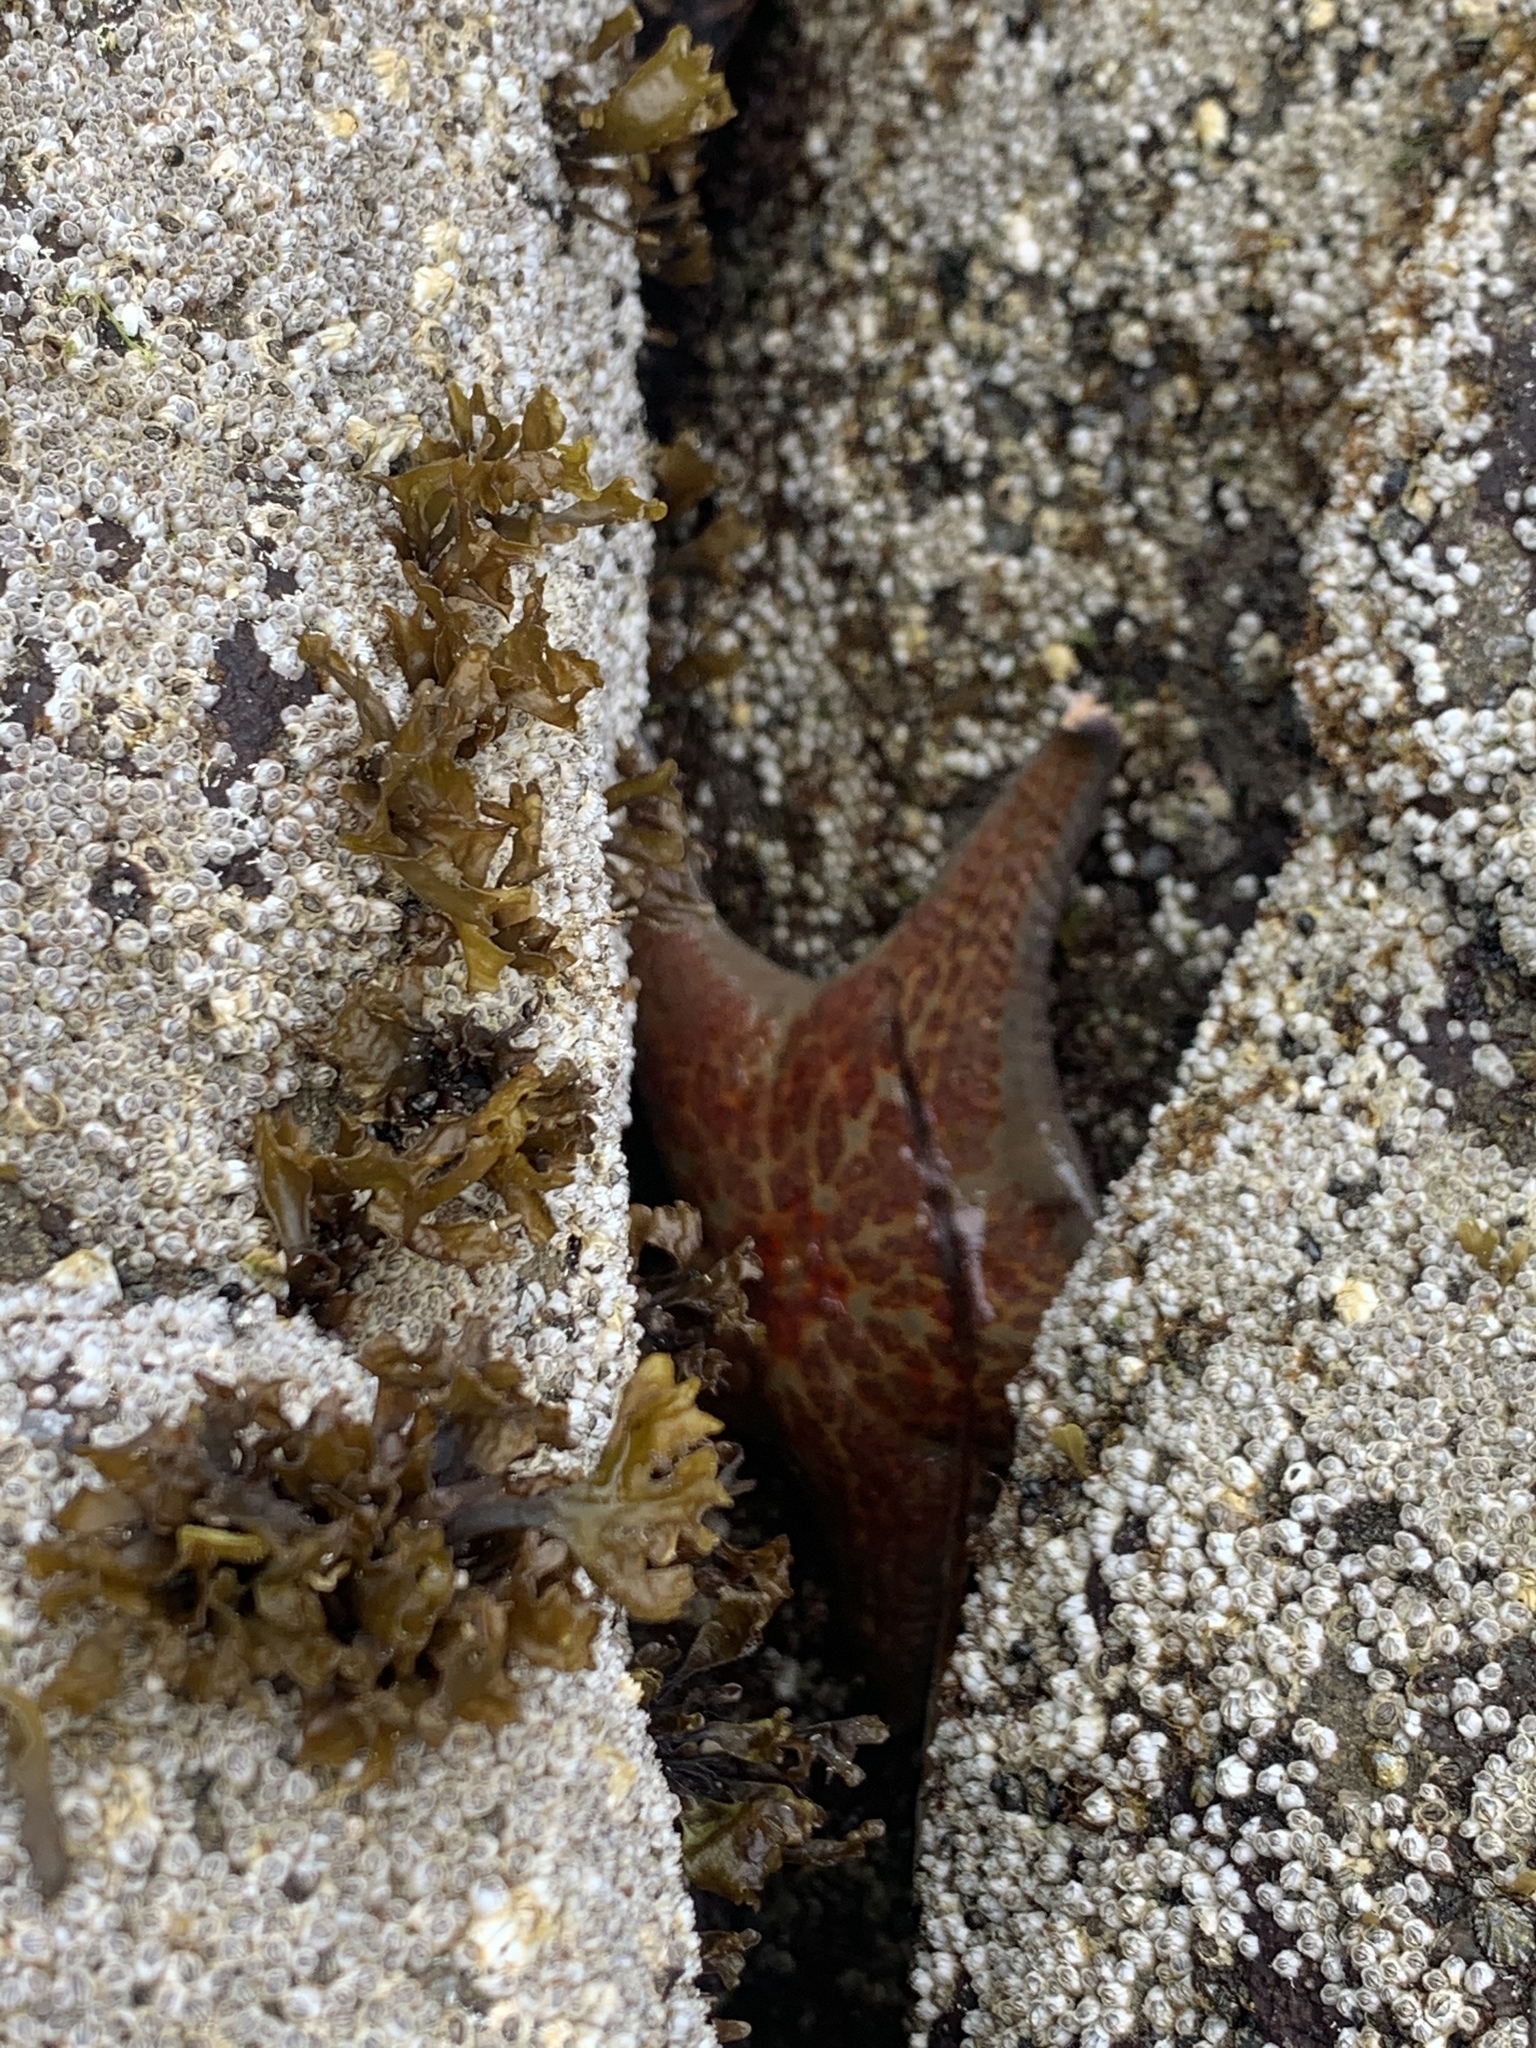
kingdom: Animalia
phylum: Echinodermata
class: Asteroidea
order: Valvatida
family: Asteropseidae
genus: Dermasterias
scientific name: Dermasterias imbricata
